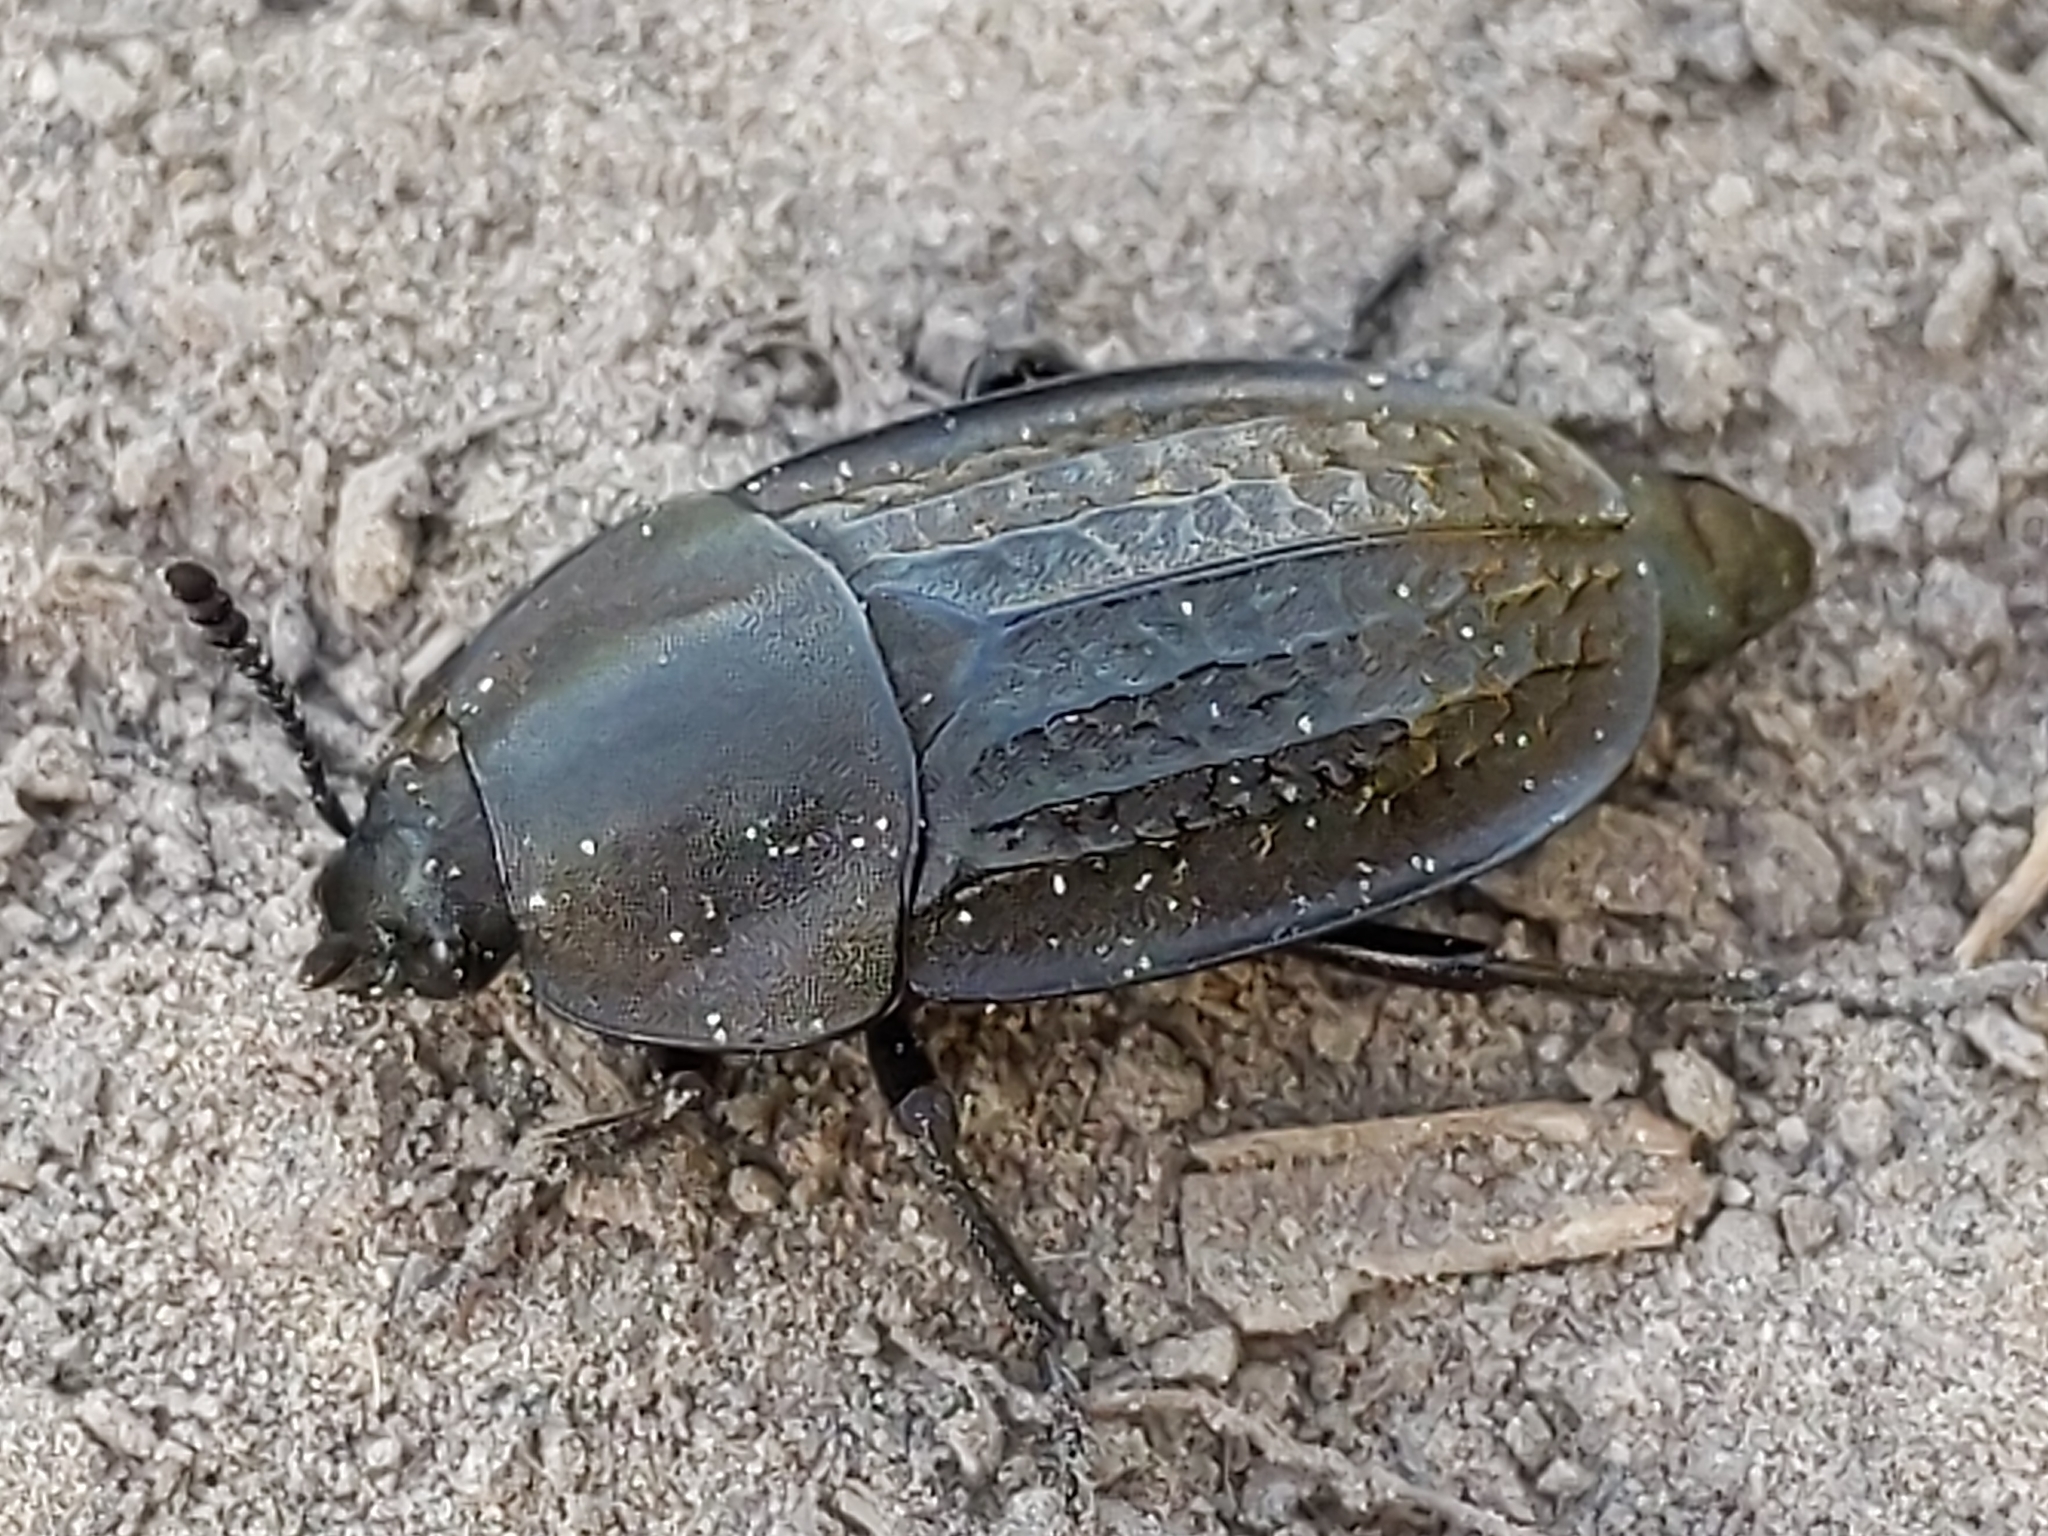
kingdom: Animalia
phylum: Arthropoda
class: Insecta
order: Coleoptera
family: Staphylinidae
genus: Heterosilpha
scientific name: Heterosilpha ramosa
